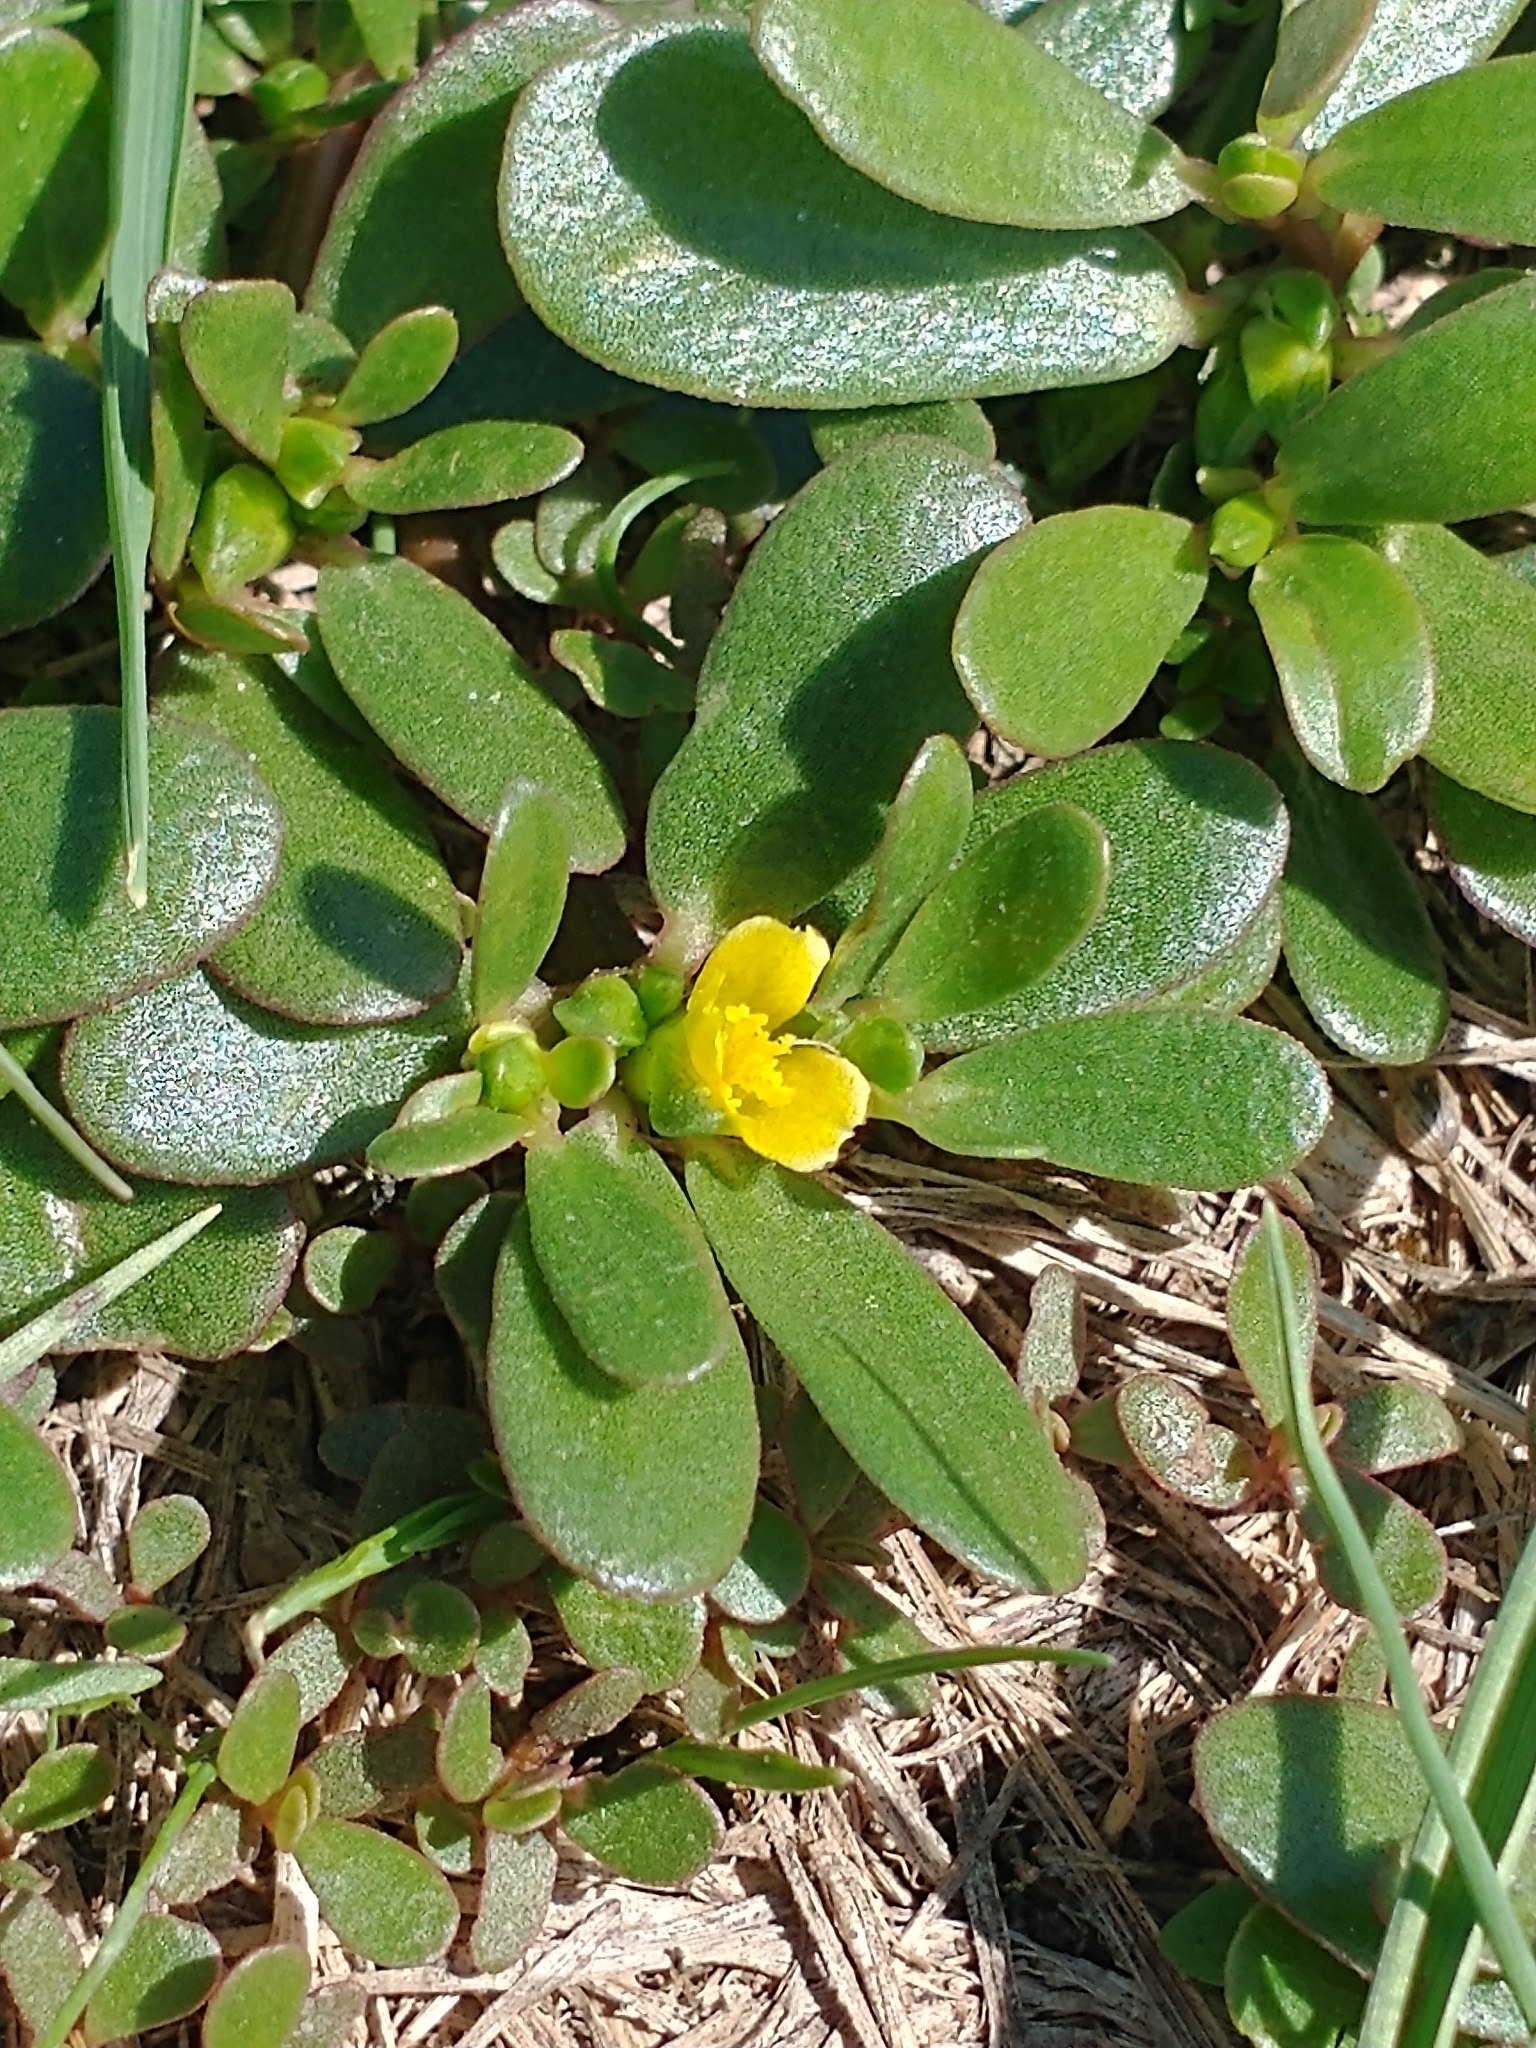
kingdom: Plantae
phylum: Tracheophyta
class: Magnoliopsida
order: Caryophyllales
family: Portulacaceae
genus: Portulaca
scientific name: Portulaca oleracea
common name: Common purslane
